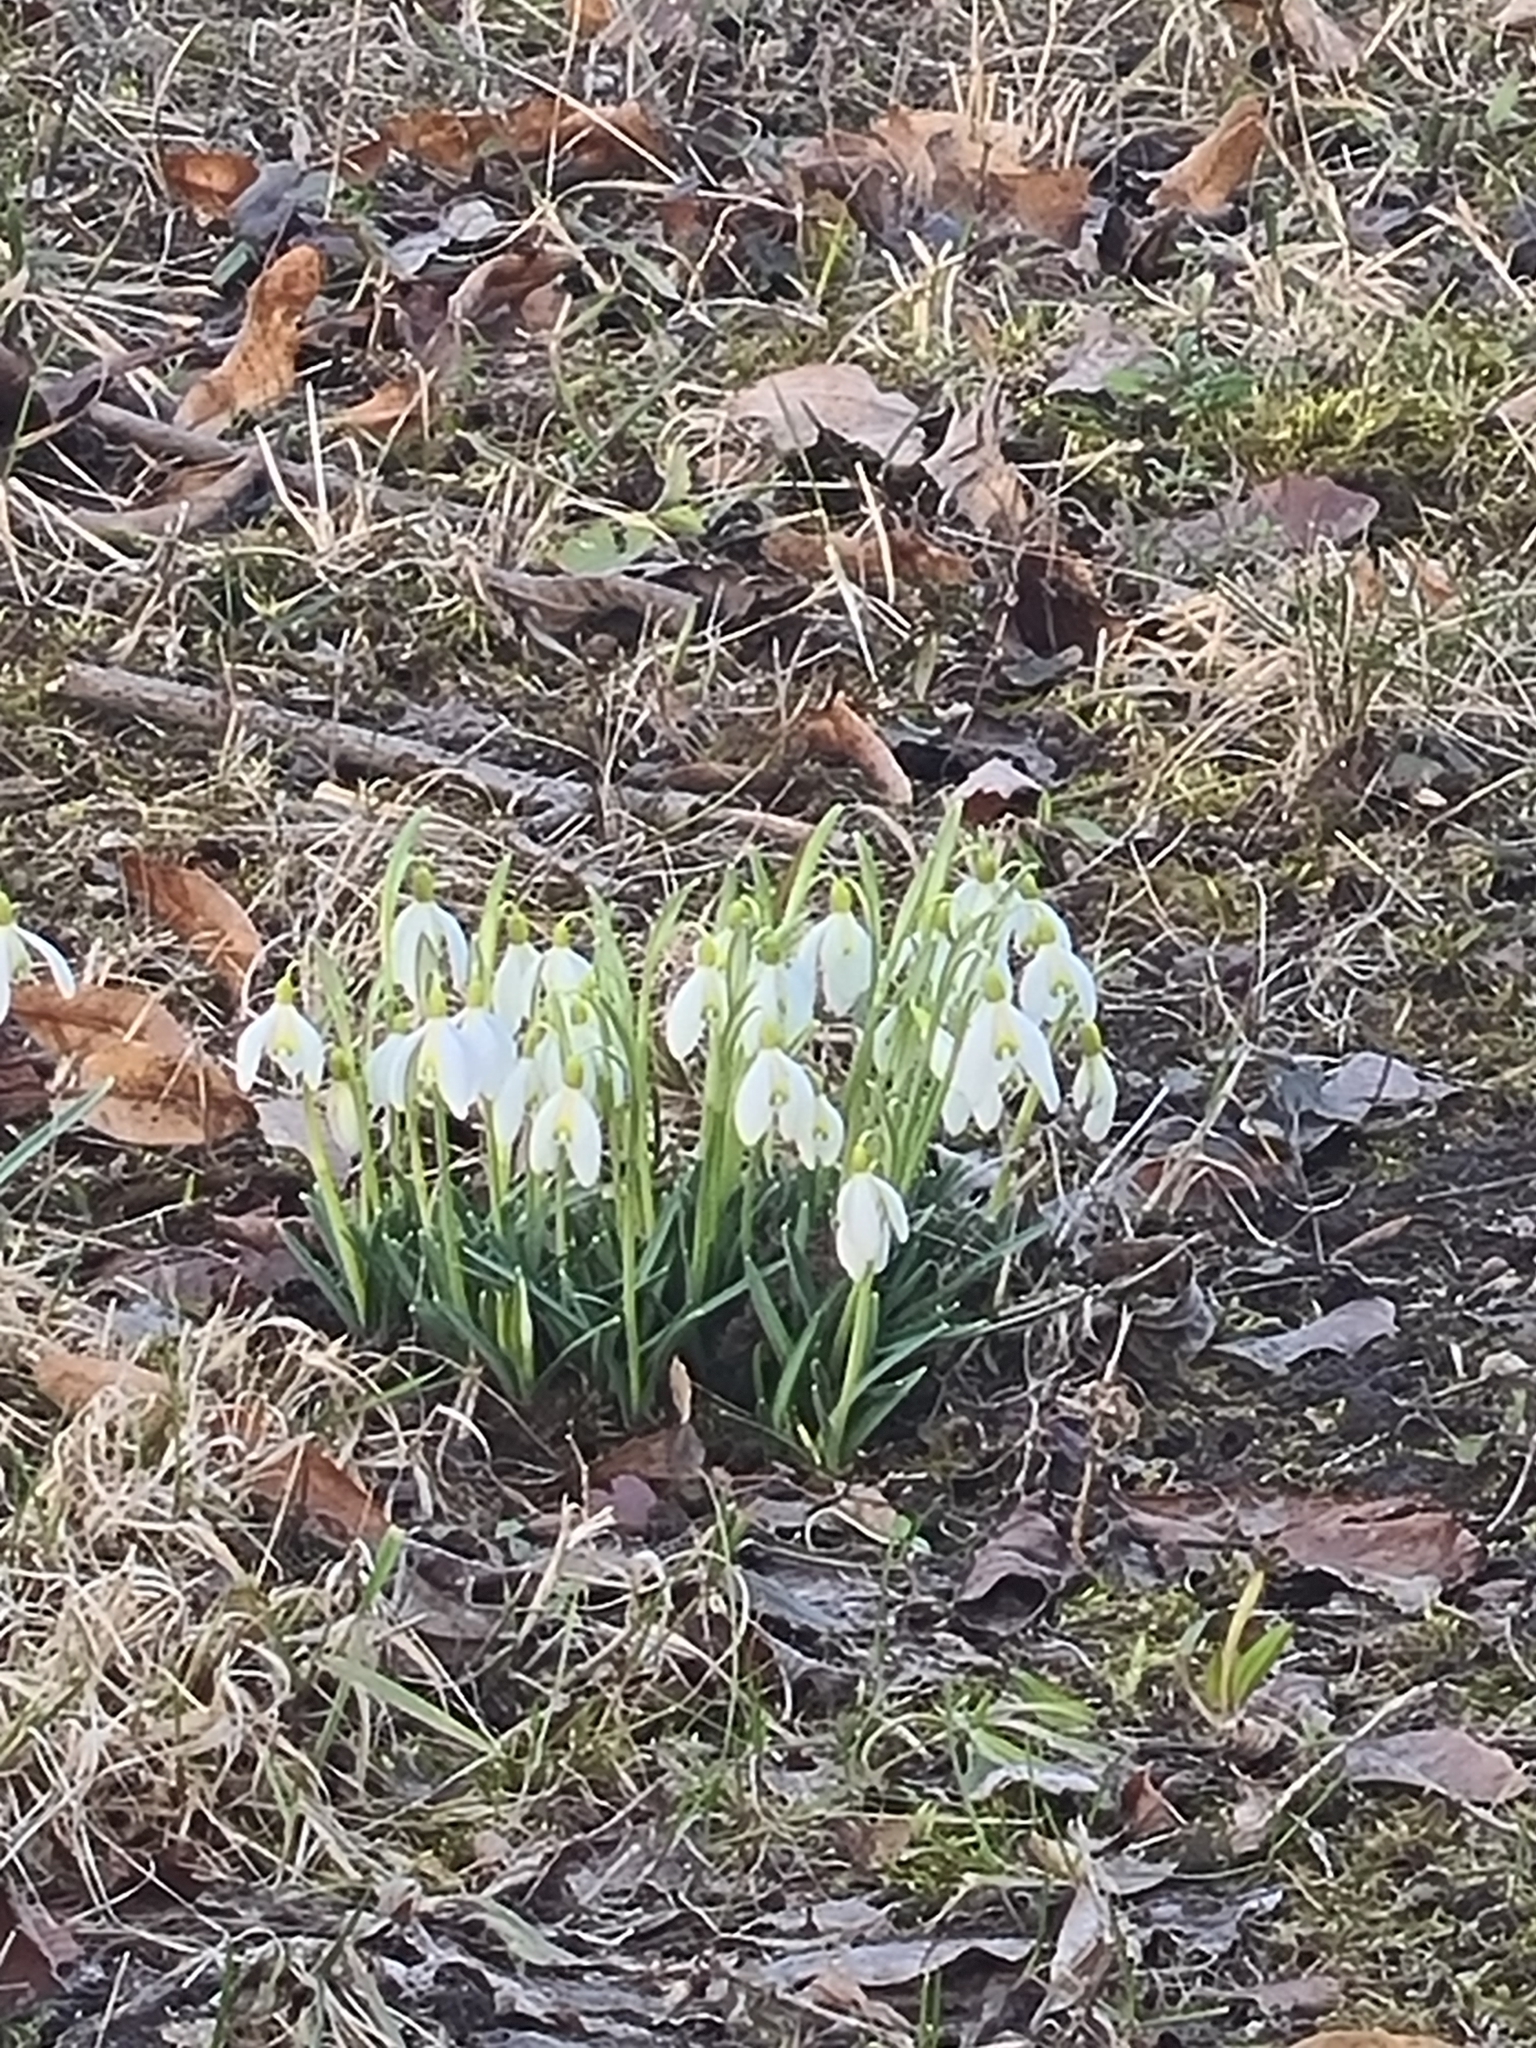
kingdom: Plantae
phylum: Tracheophyta
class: Liliopsida
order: Asparagales
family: Amaryllidaceae
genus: Galanthus
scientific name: Galanthus nivalis
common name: Snowdrop
